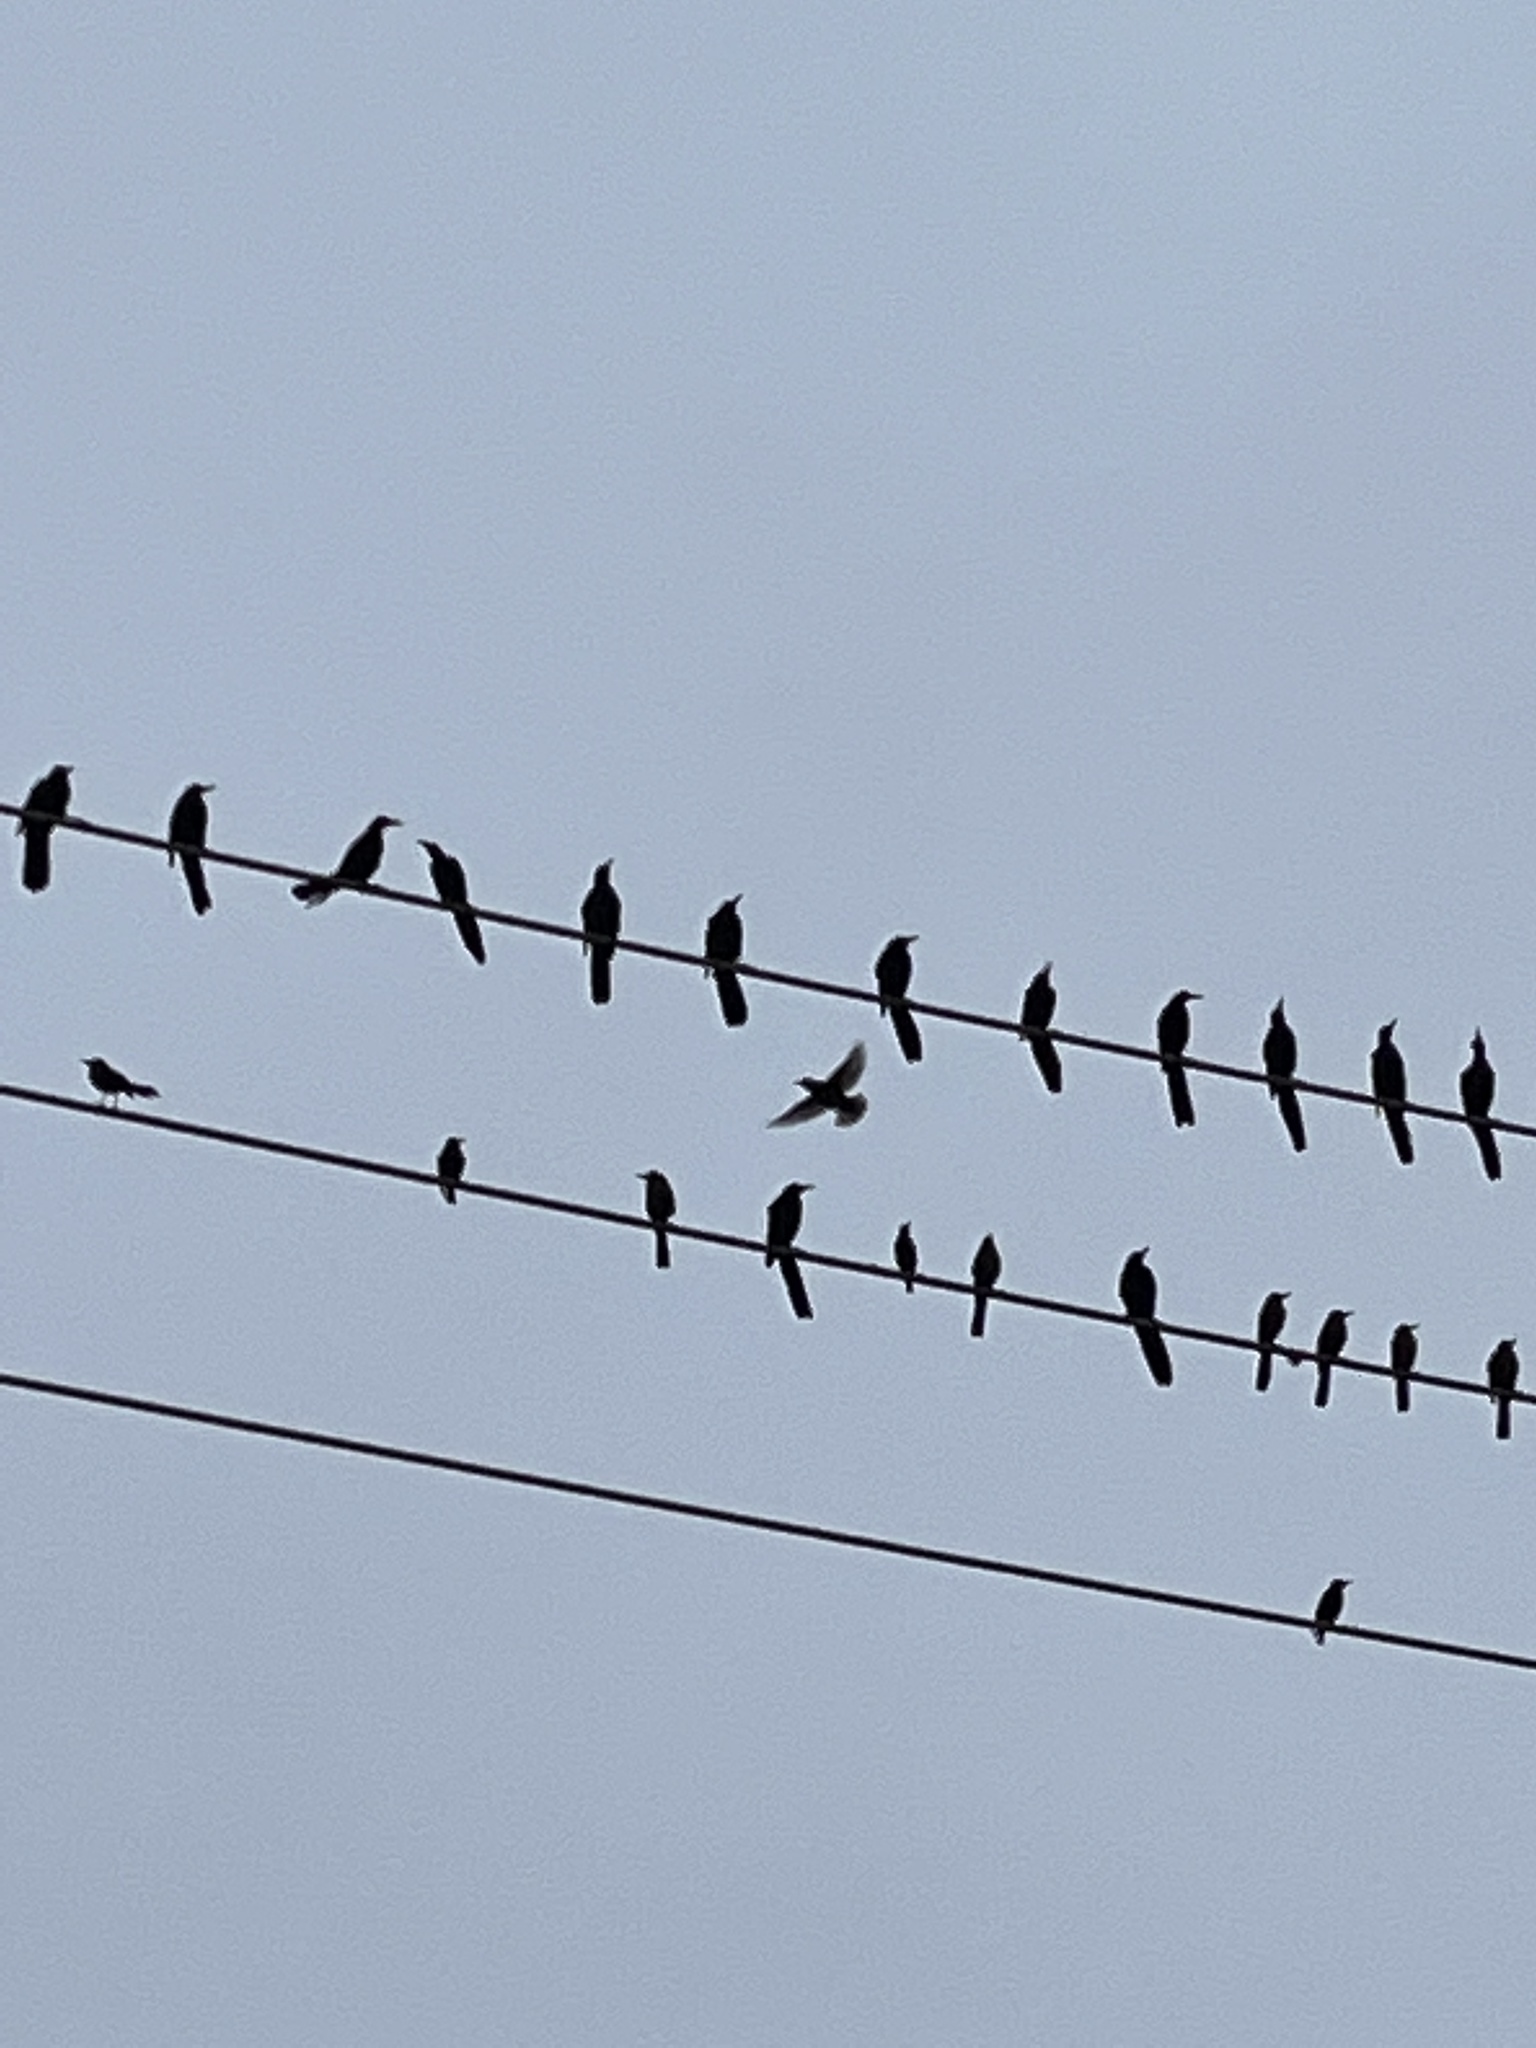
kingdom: Animalia
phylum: Chordata
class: Aves
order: Passeriformes
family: Icteridae
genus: Quiscalus
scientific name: Quiscalus mexicanus
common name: Great-tailed grackle
